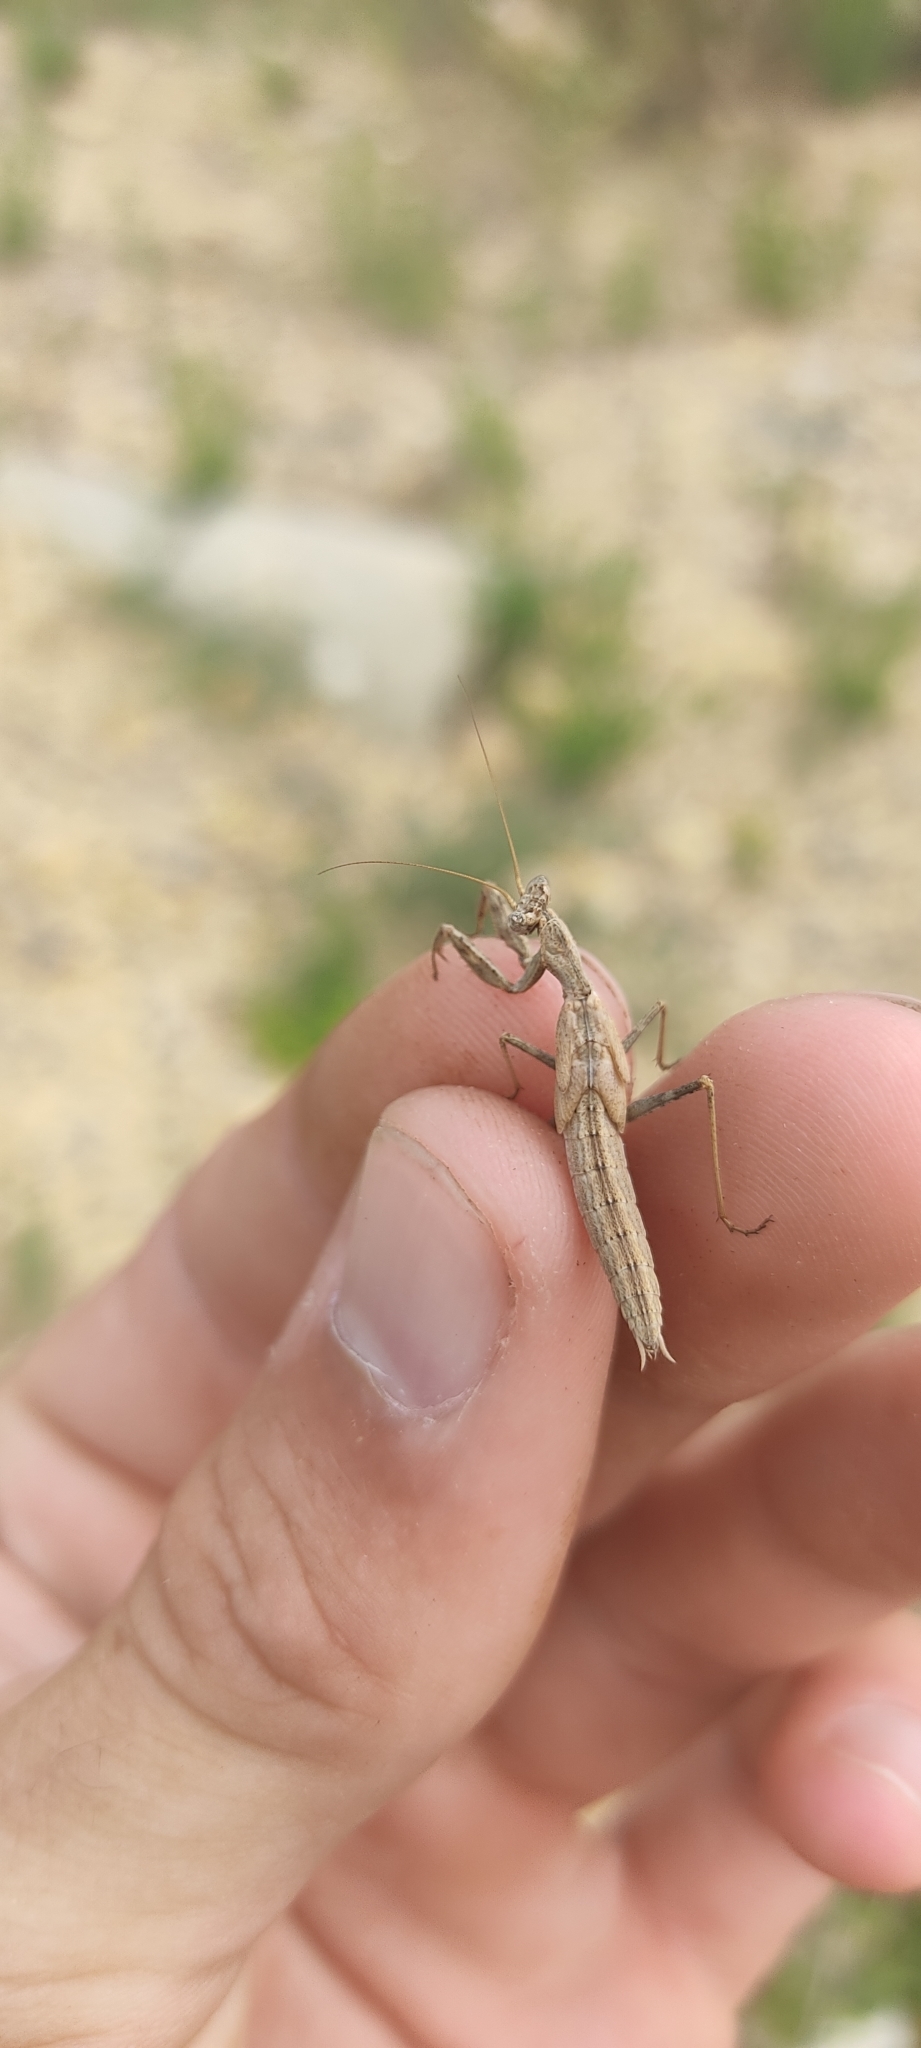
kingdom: Animalia
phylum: Arthropoda
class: Insecta
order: Mantodea
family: Amelidae
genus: Ameles
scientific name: Ameles decolor
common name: Dwarf mantis
